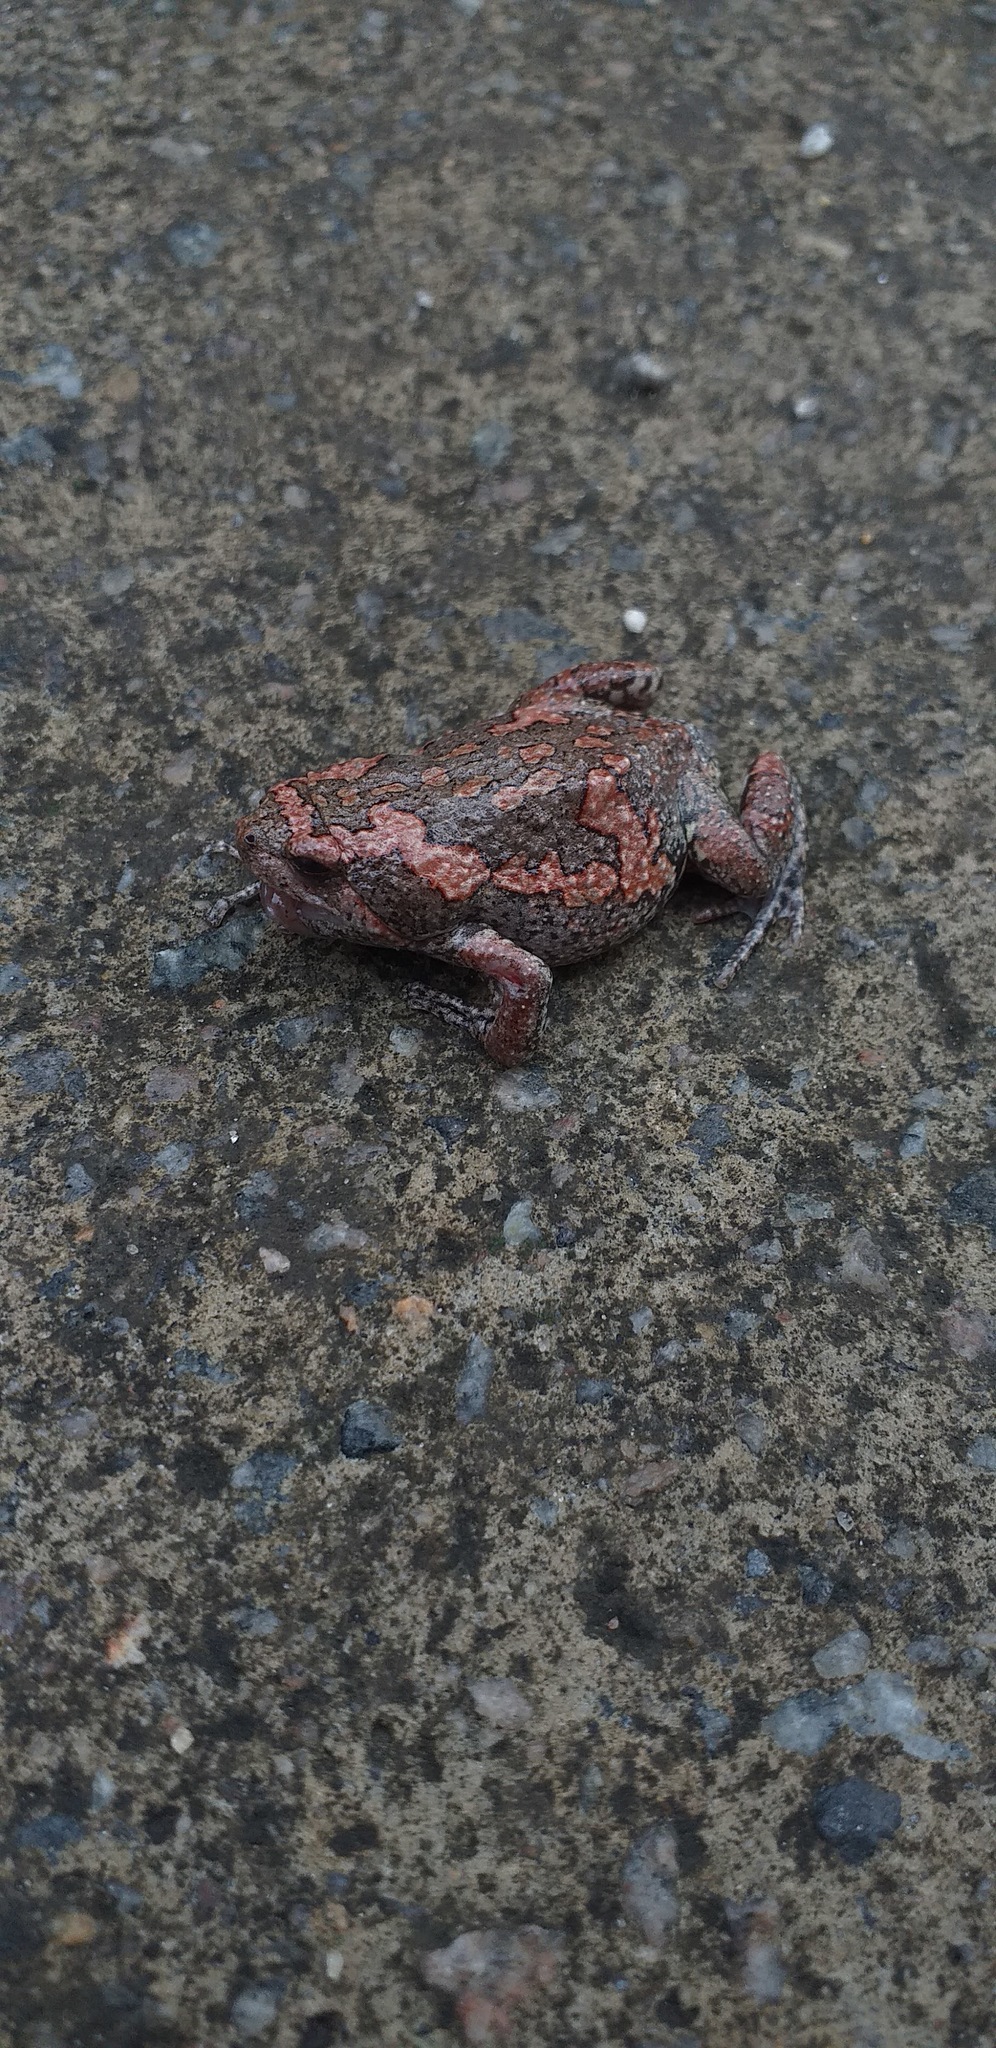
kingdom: Animalia
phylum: Chordata
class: Amphibia
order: Anura
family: Microhylidae
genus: Uperodon
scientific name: Uperodon taprobanicus
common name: Ceylon kaloula
